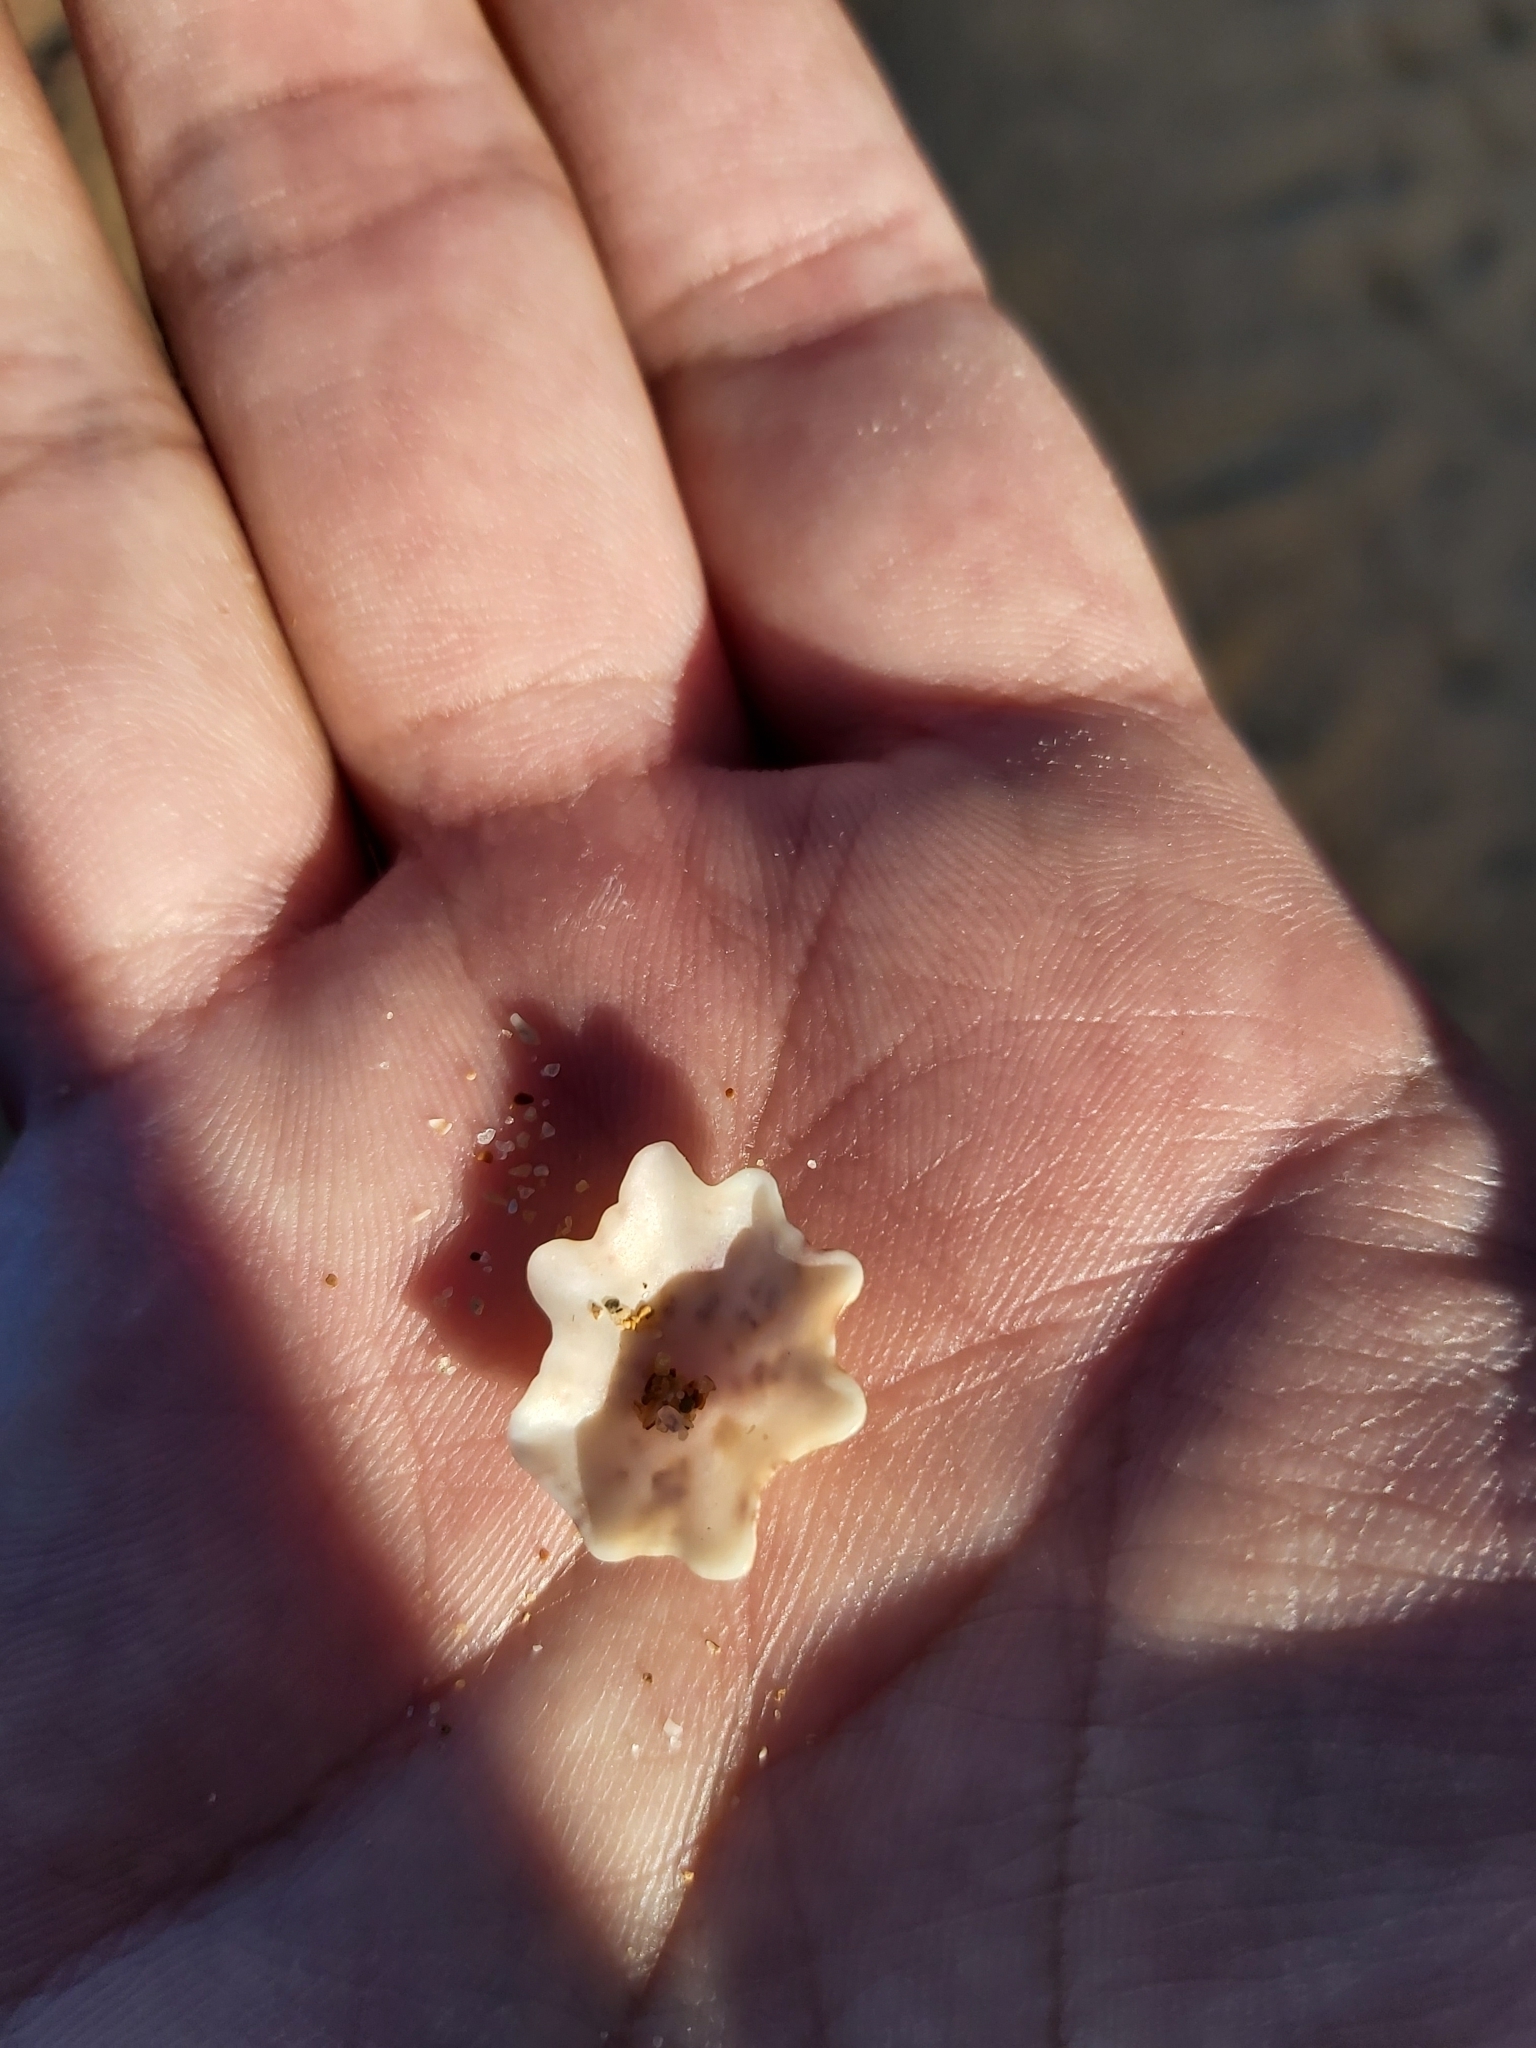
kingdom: Animalia
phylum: Mollusca
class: Gastropoda
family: Patellidae
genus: Scutellastra
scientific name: Scutellastra chapmani
